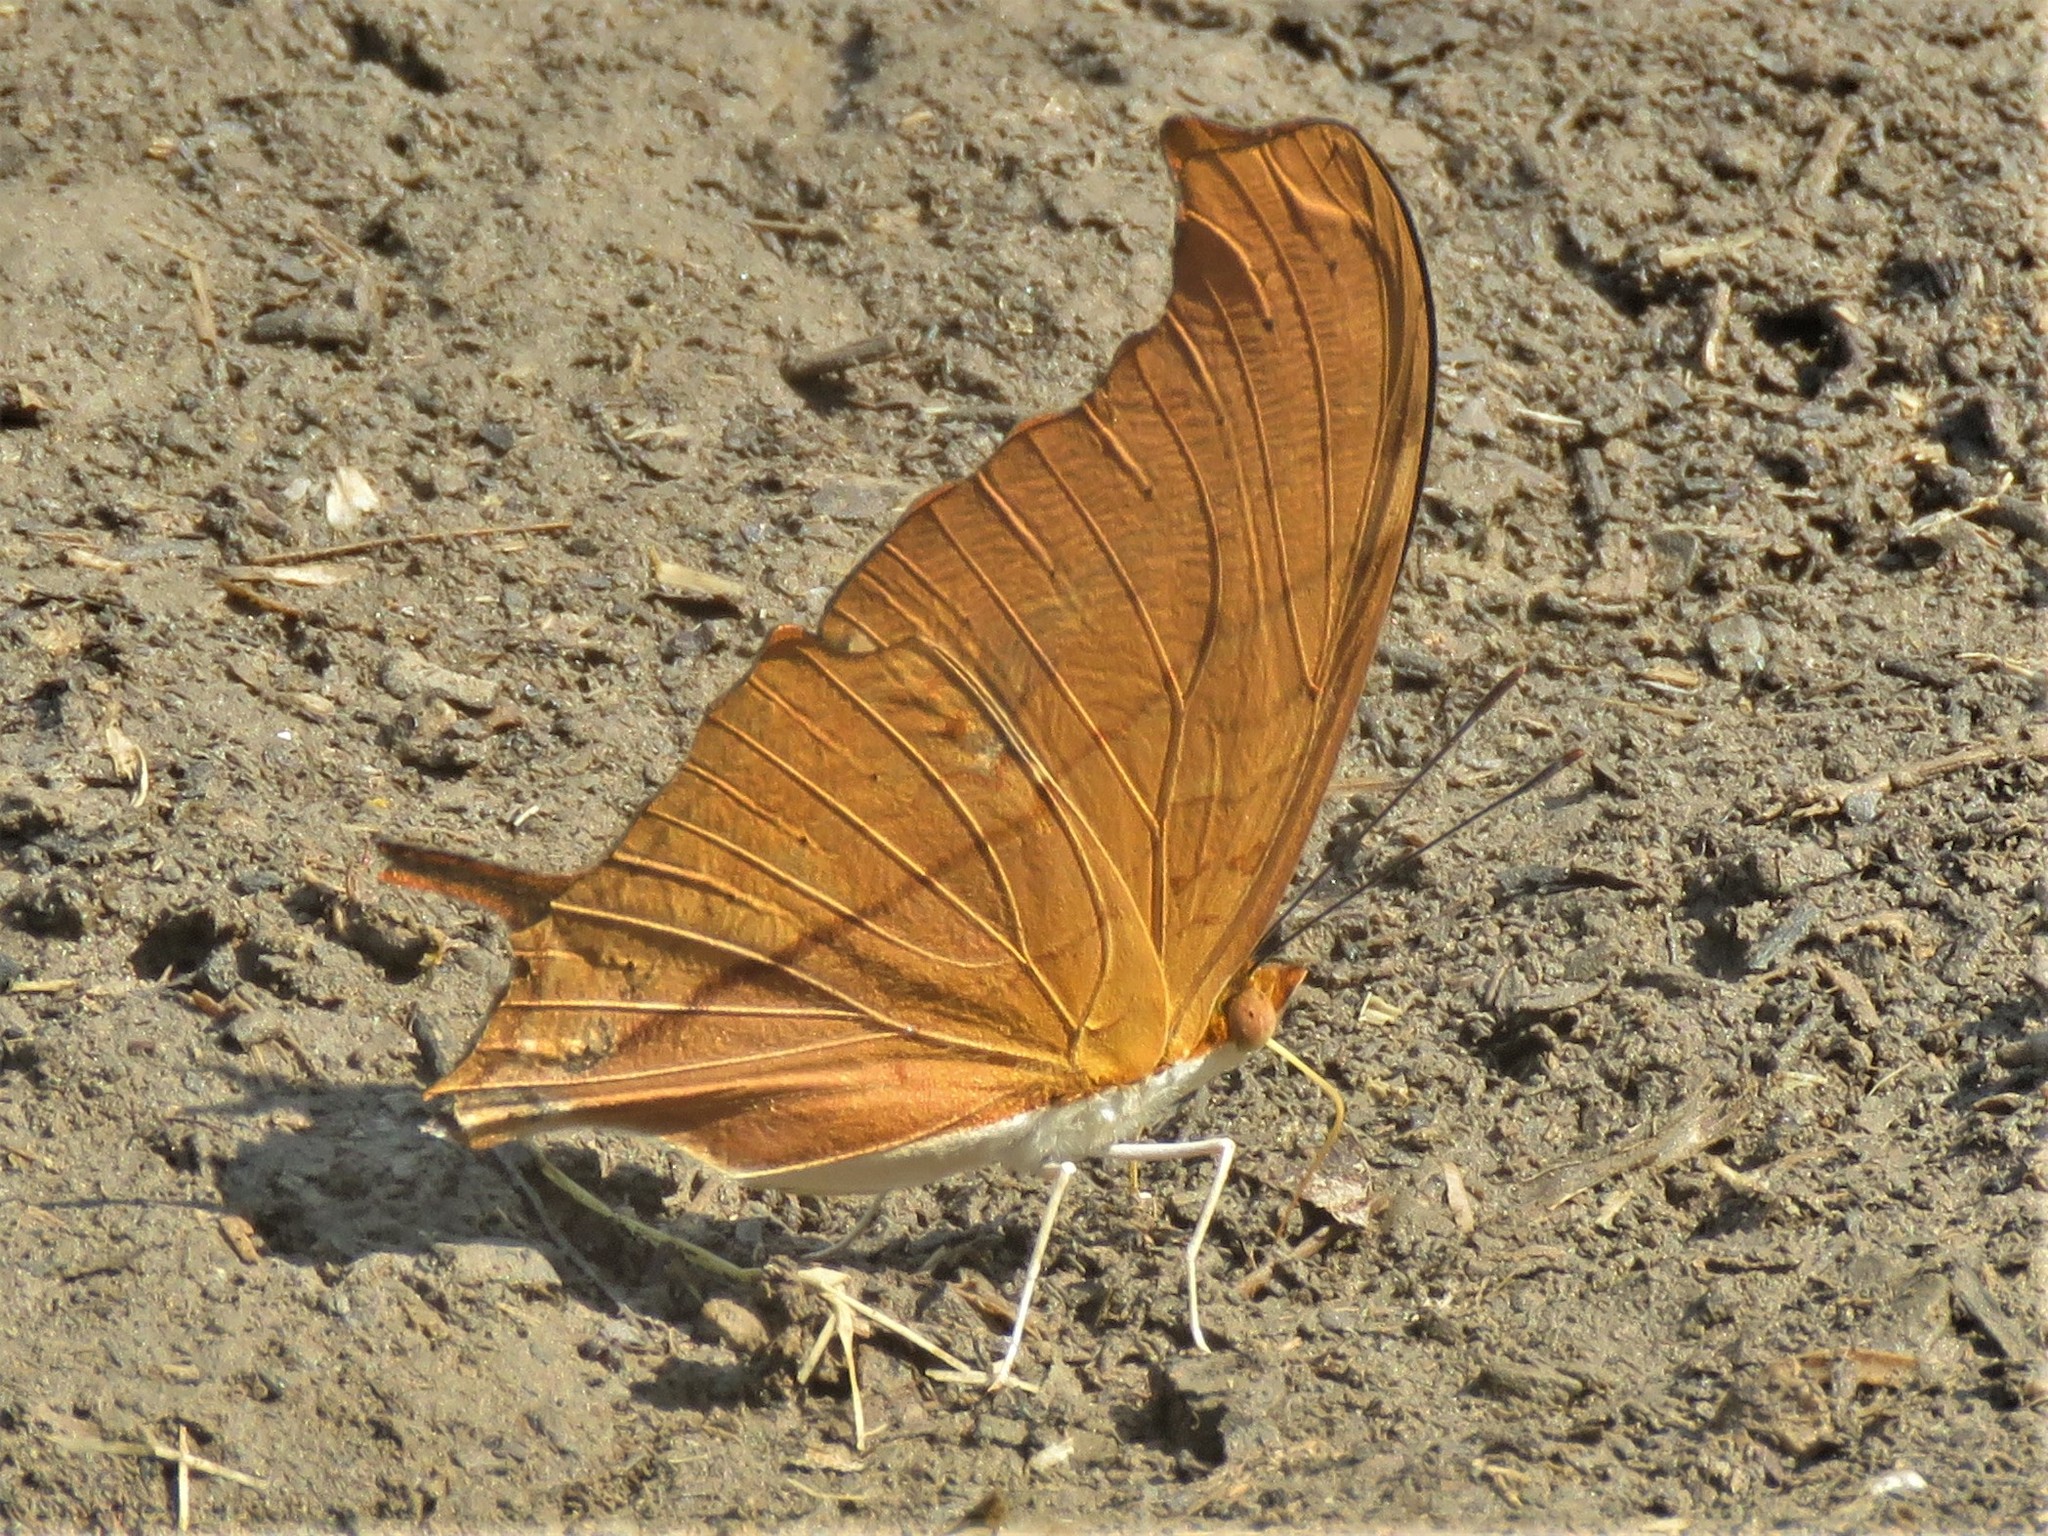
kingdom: Animalia
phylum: Arthropoda
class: Insecta
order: Lepidoptera
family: Nymphalidae
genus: Marpesia
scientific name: Marpesia petreus
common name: Red dagger wing
